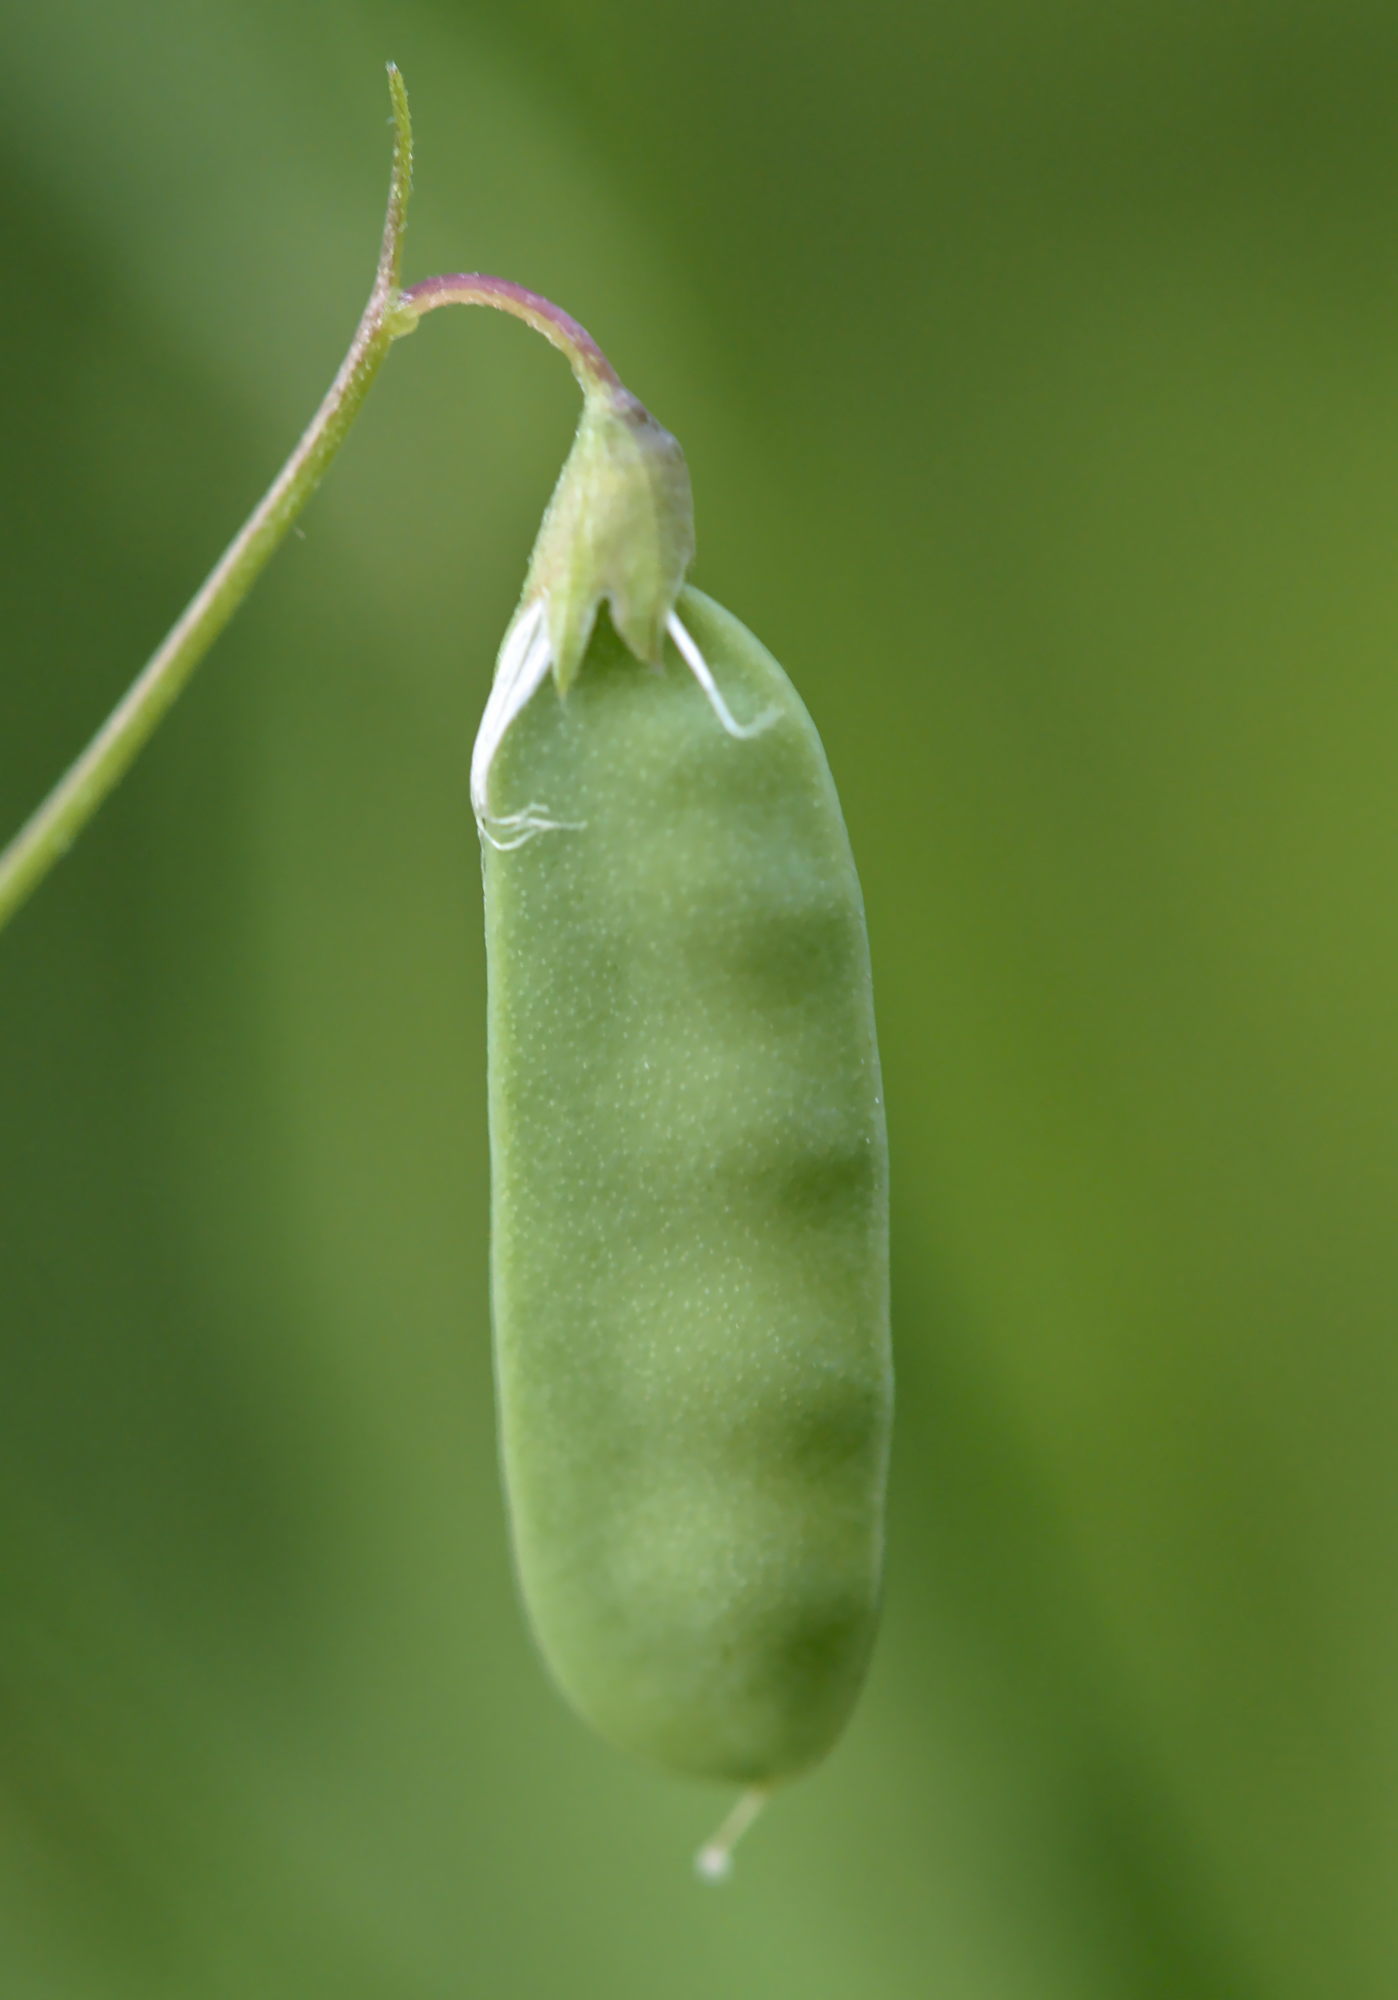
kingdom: Plantae
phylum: Tracheophyta
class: Magnoliopsida
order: Fabales
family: Fabaceae
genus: Vicia
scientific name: Vicia tetrasperma
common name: Smooth tare
